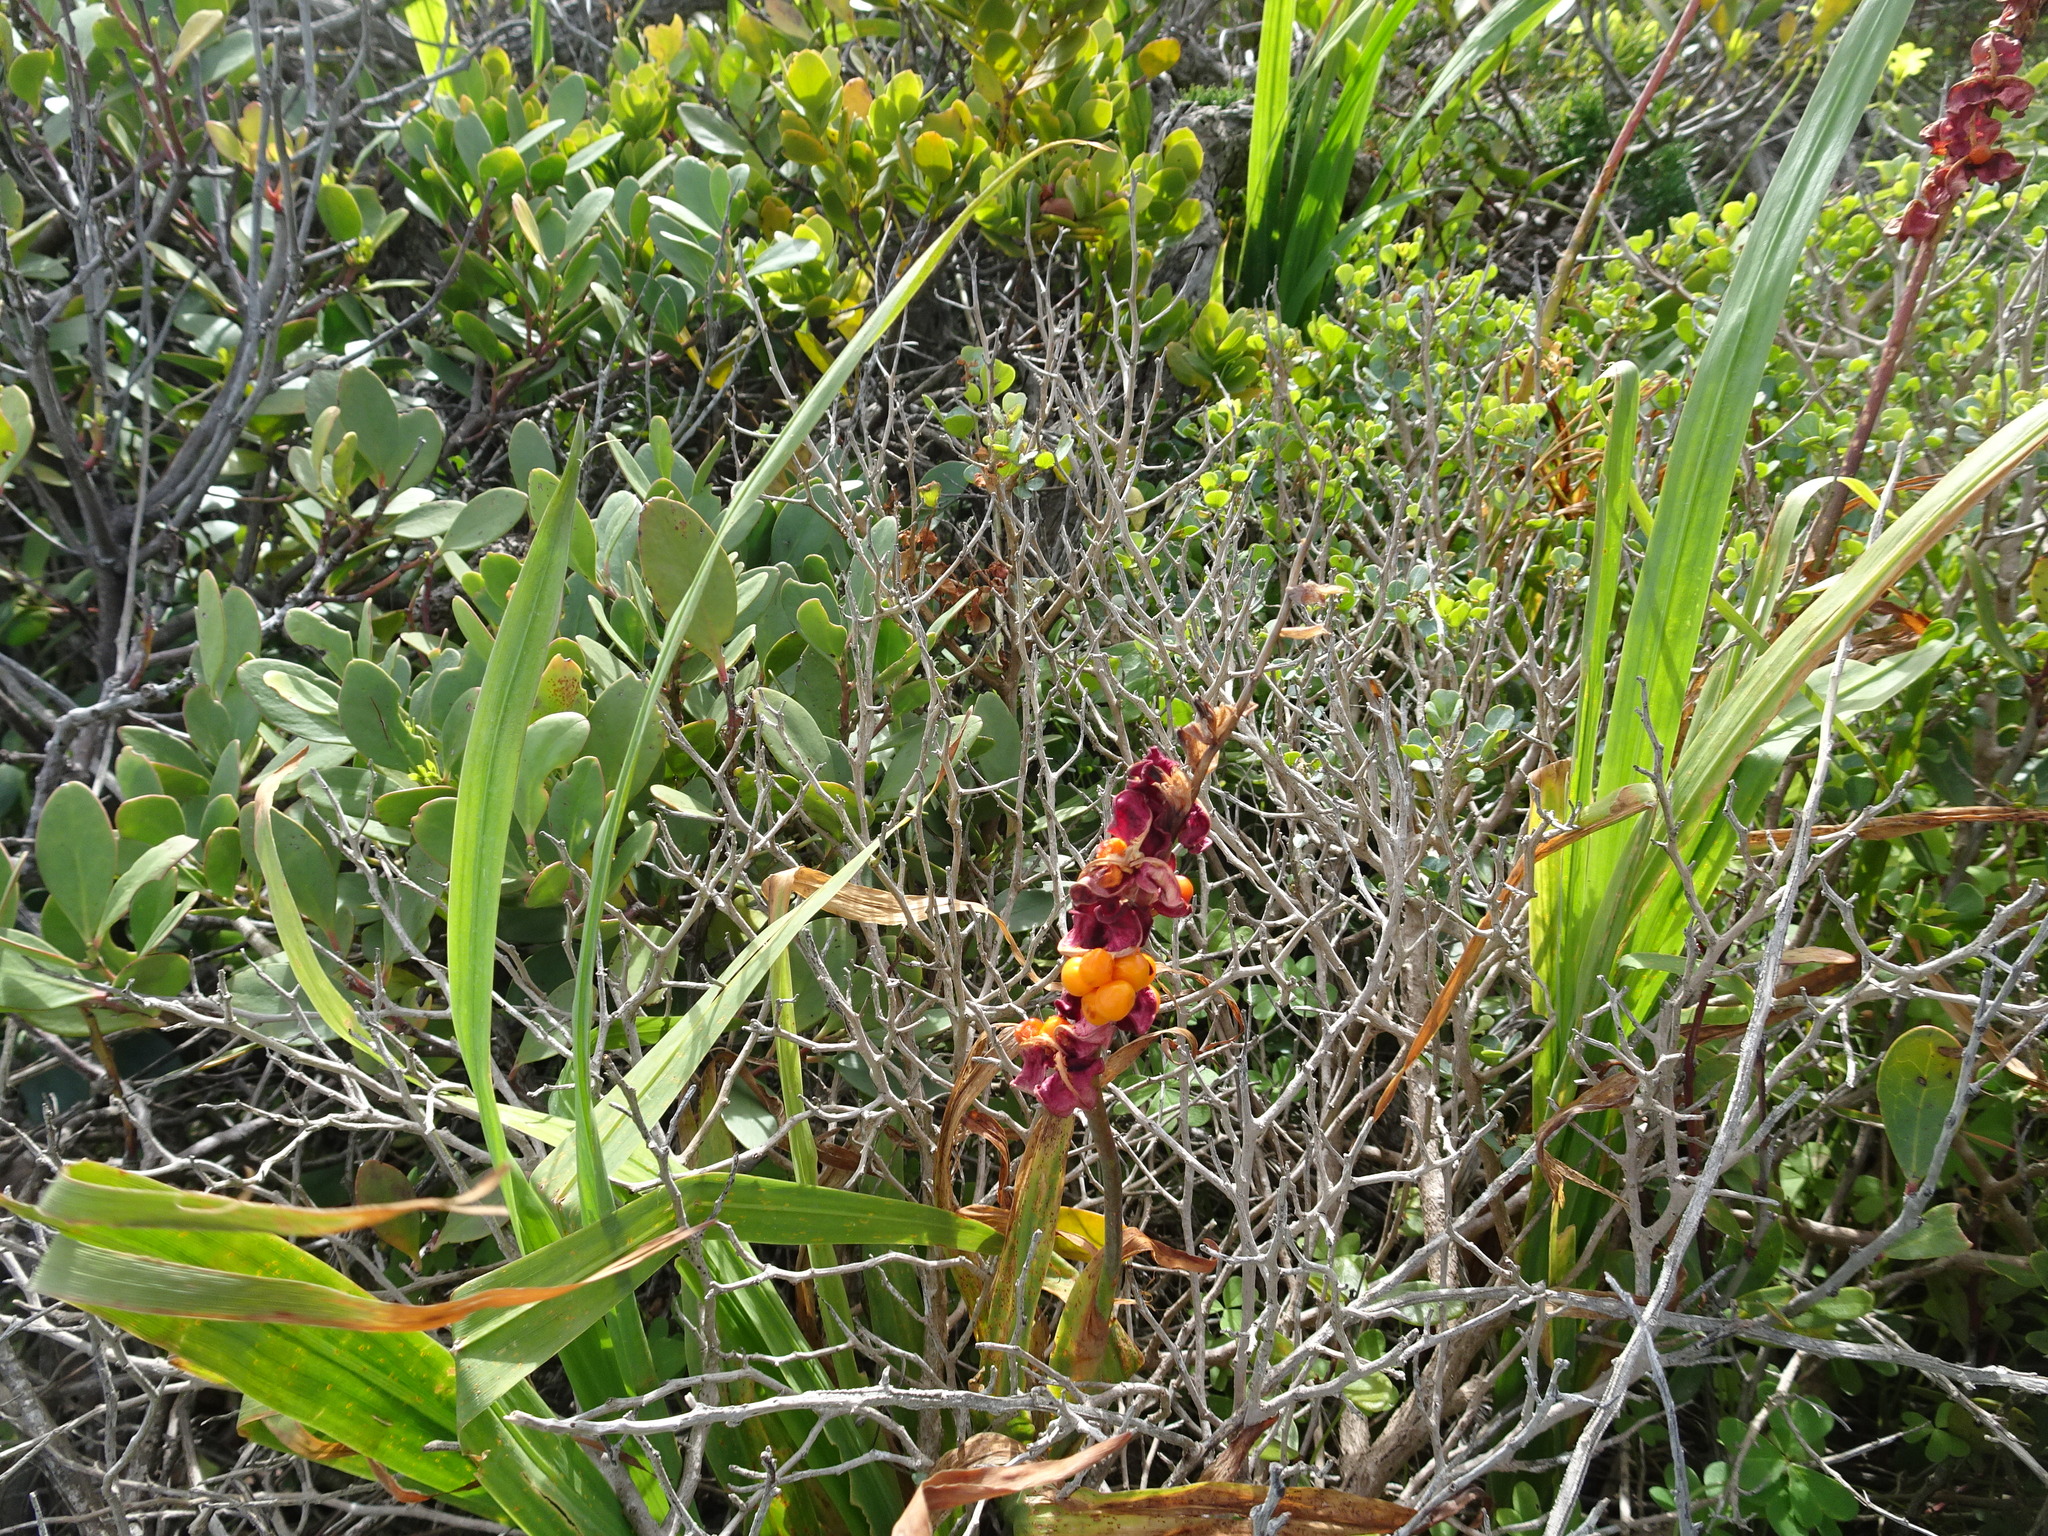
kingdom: Plantae
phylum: Tracheophyta
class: Liliopsida
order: Asparagales
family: Iridaceae
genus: Chasmanthe
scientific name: Chasmanthe aethiopica
